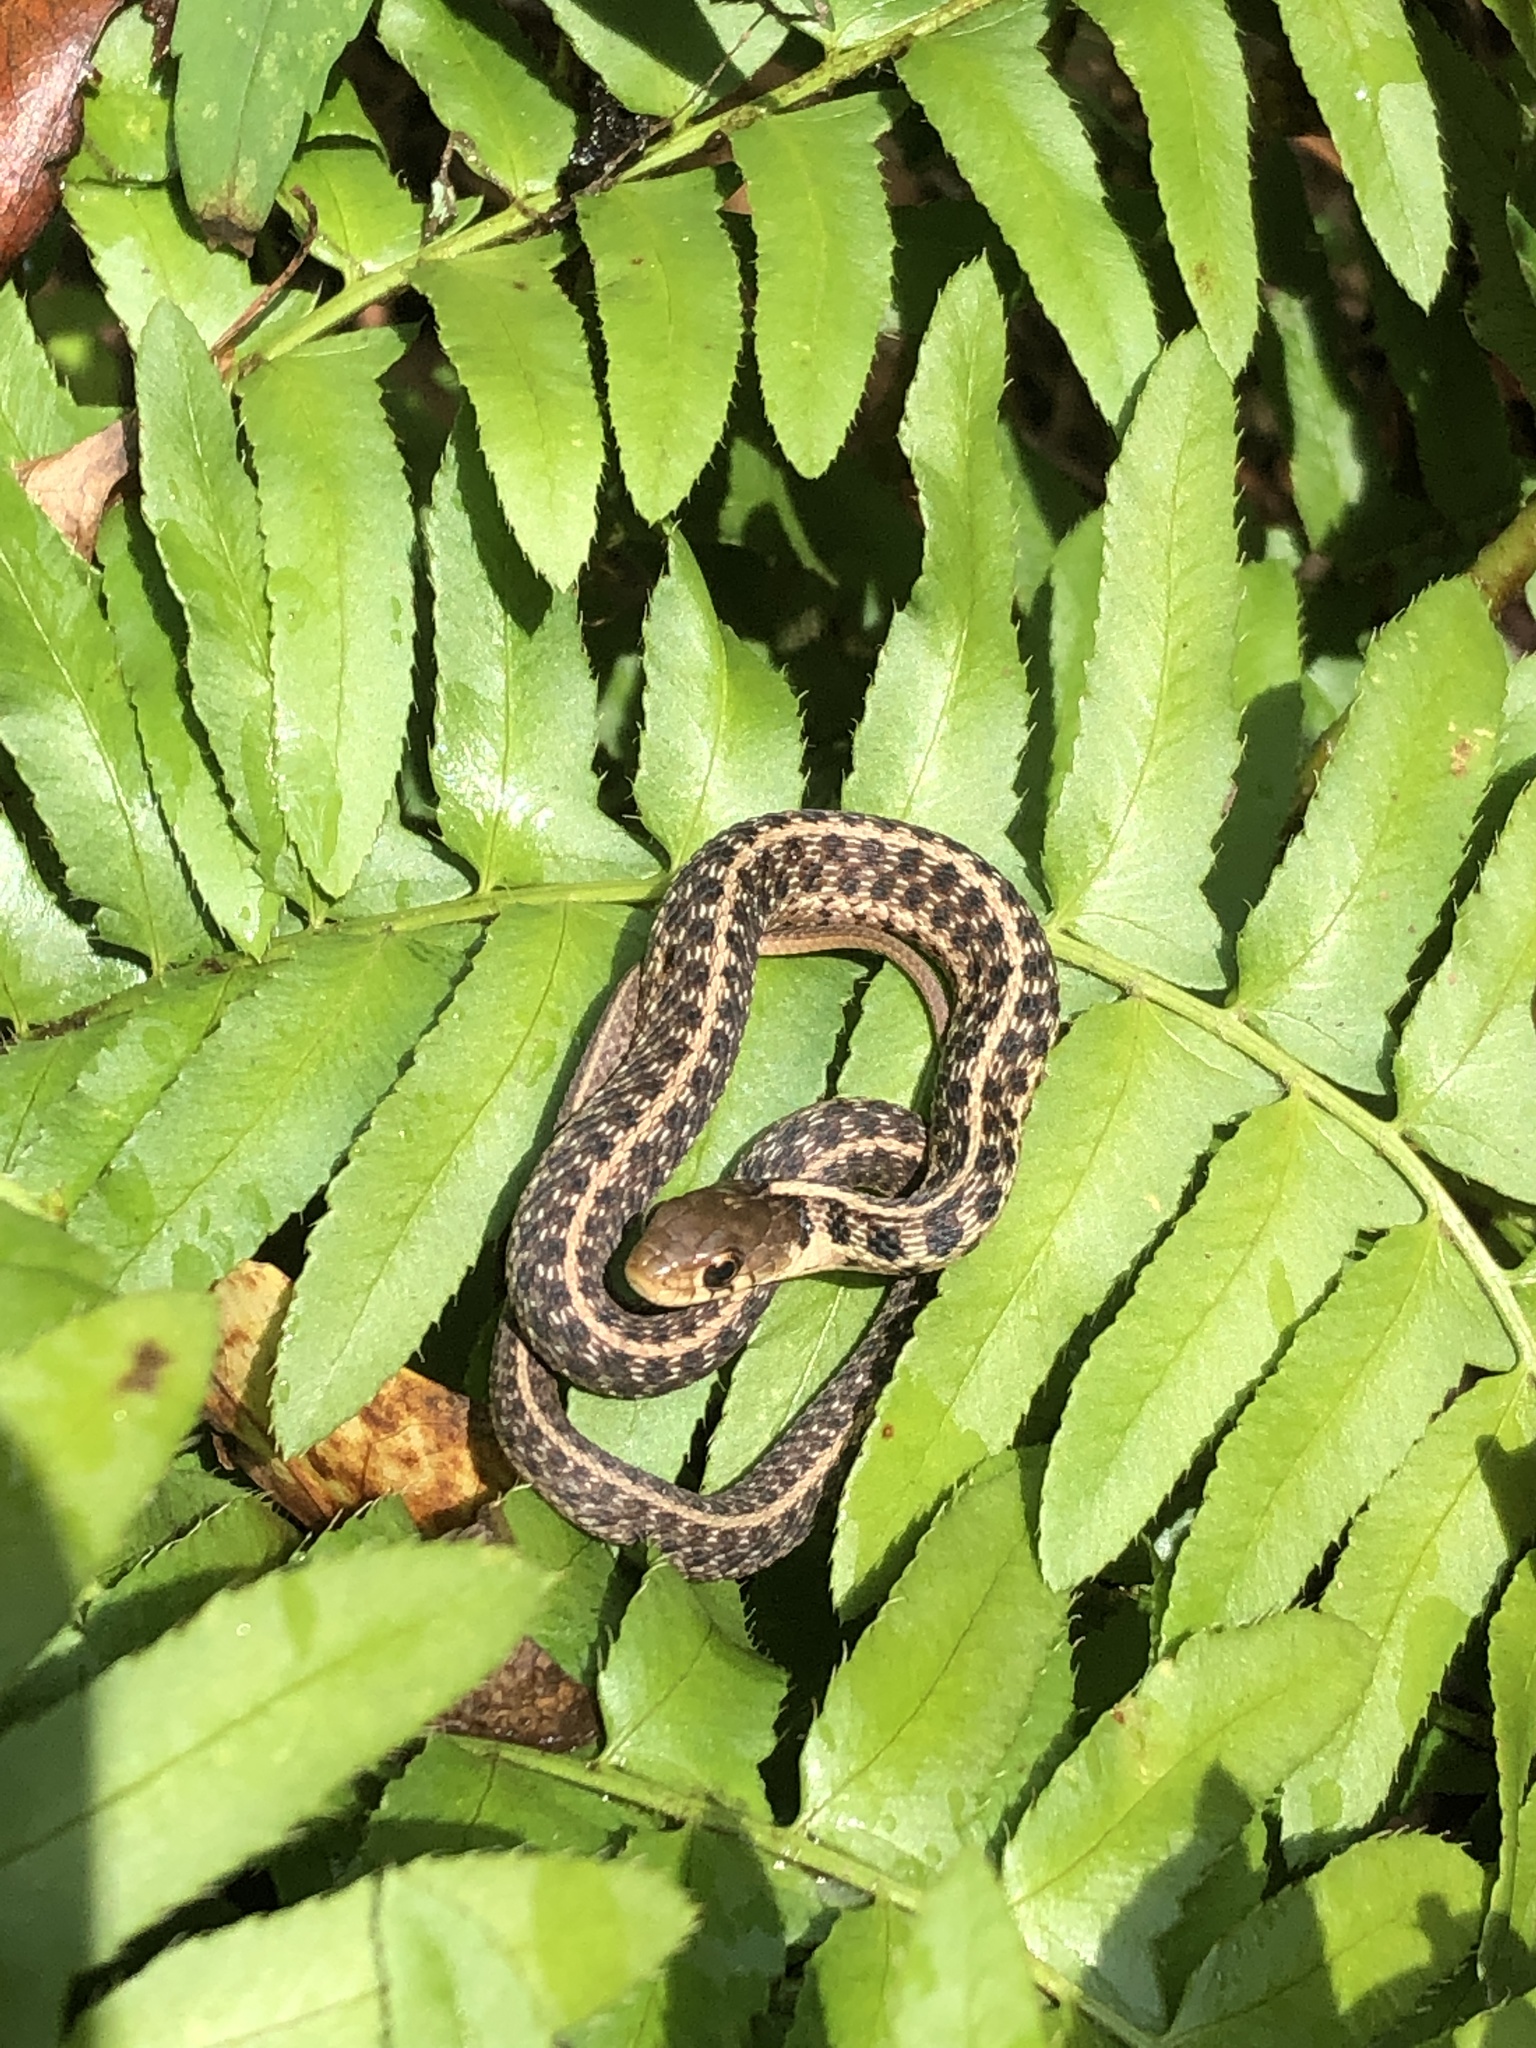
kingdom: Animalia
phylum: Chordata
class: Squamata
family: Colubridae
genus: Thamnophis
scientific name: Thamnophis sirtalis
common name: Common garter snake
